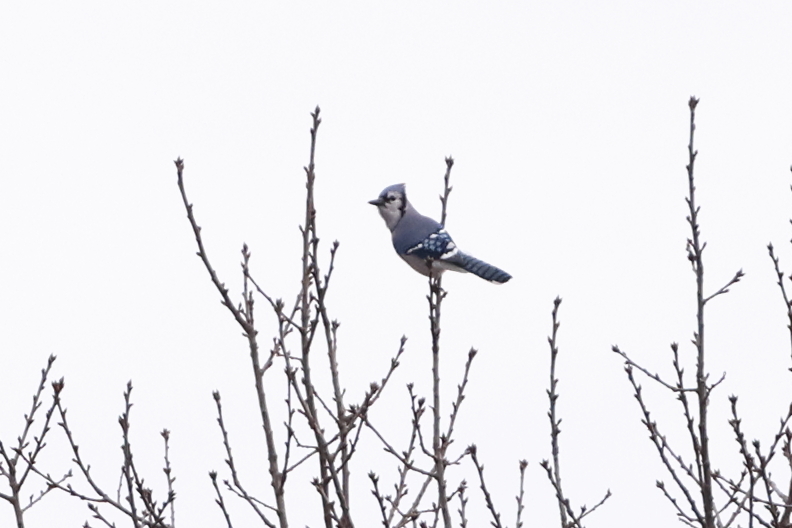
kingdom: Animalia
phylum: Chordata
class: Aves
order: Passeriformes
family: Corvidae
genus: Cyanocitta
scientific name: Cyanocitta cristata
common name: Blue jay
